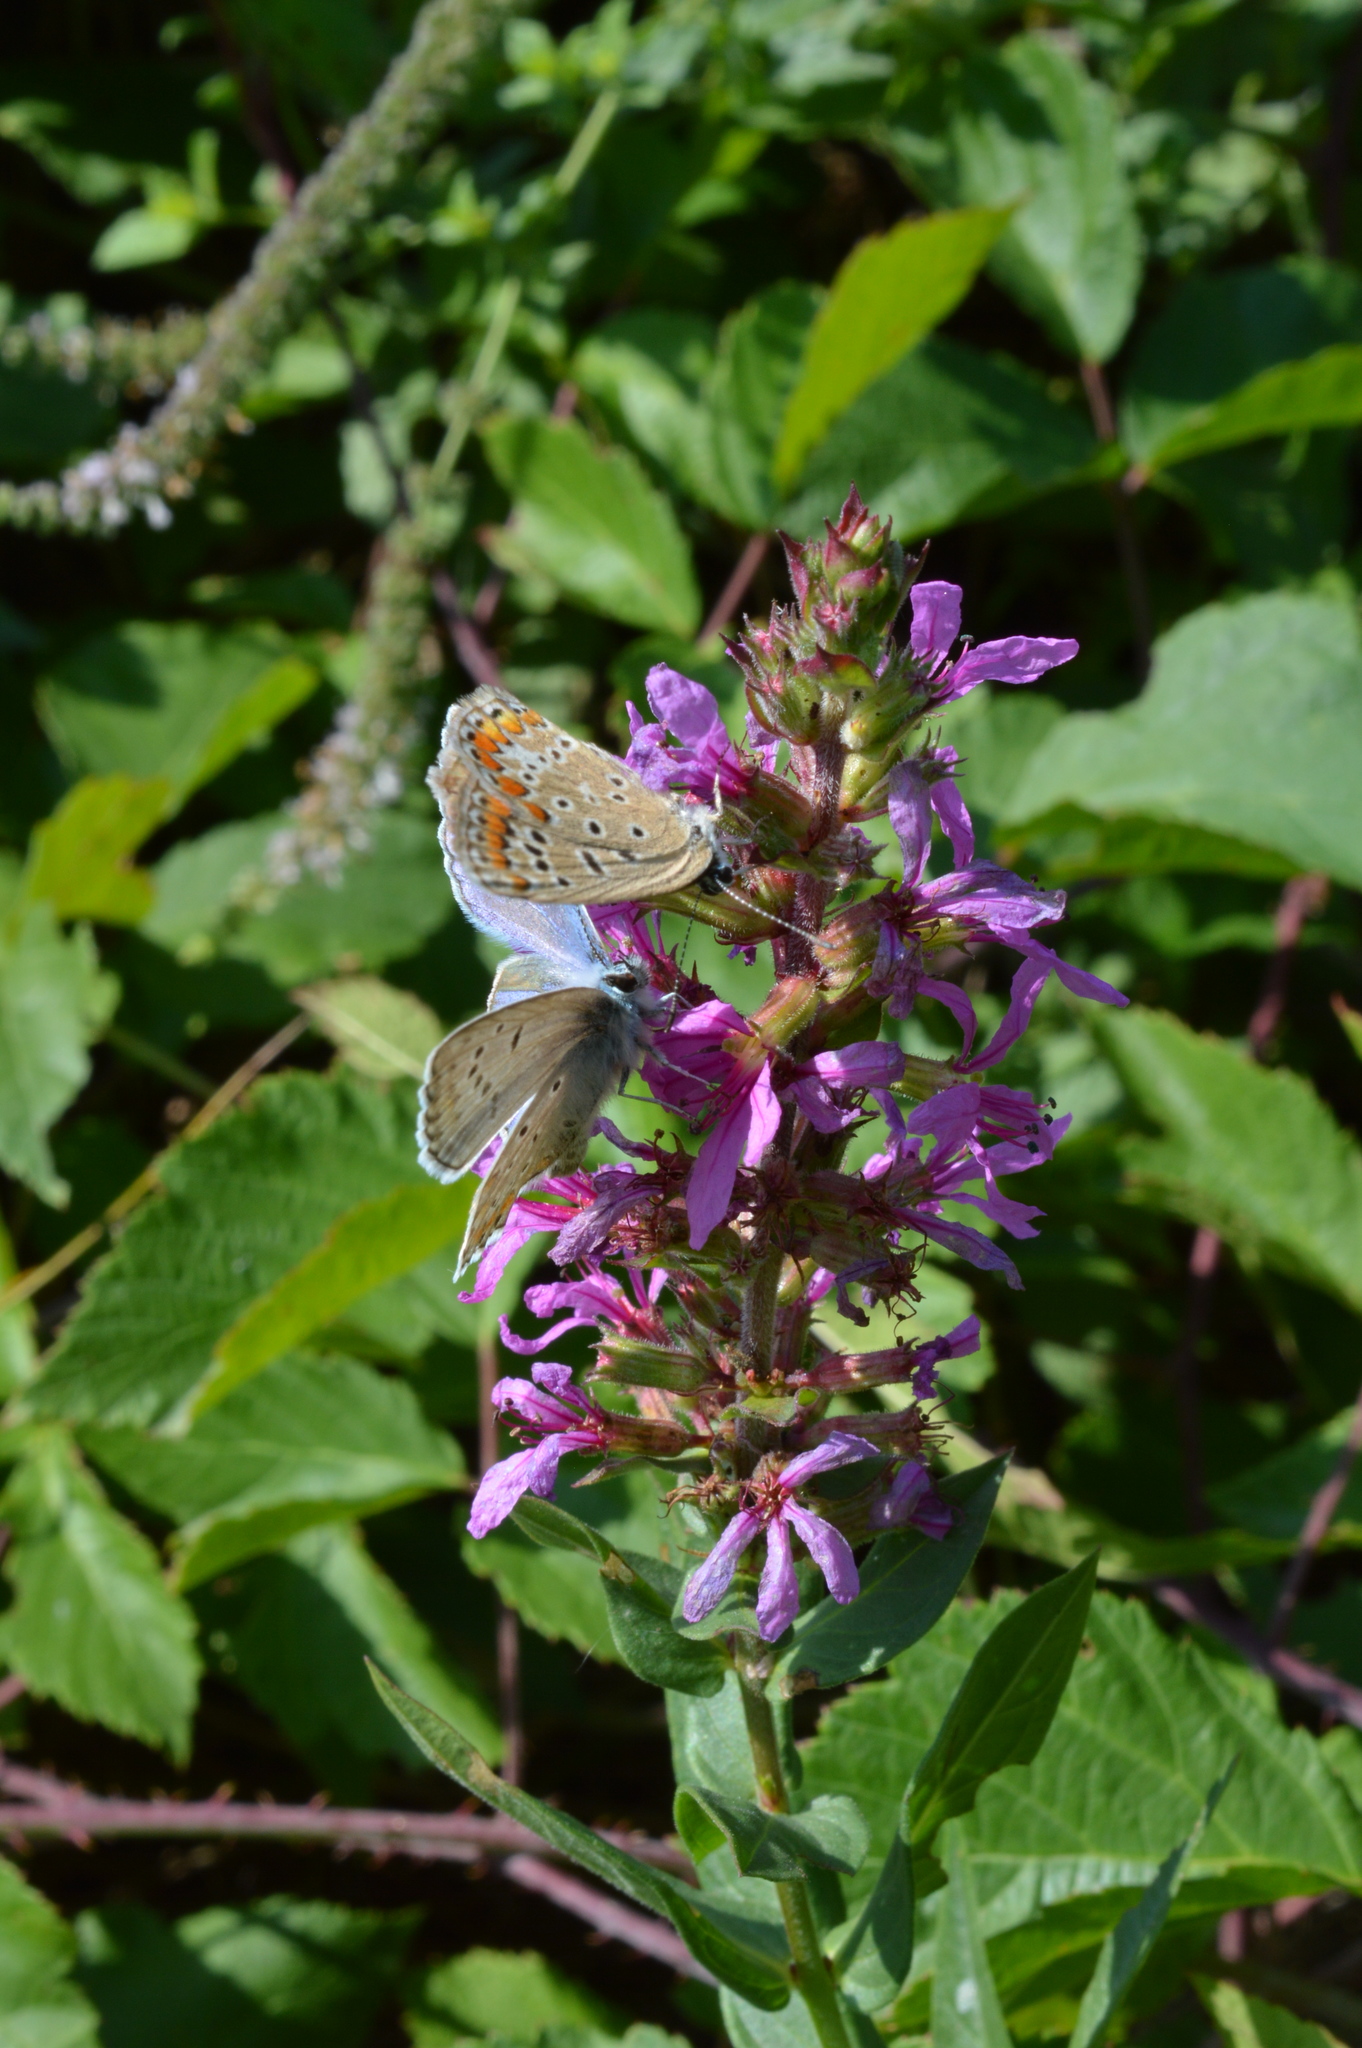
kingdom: Animalia
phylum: Arthropoda
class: Insecta
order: Lepidoptera
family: Lycaenidae
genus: Polyommatus
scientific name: Polyommatus icarus
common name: Common blue
